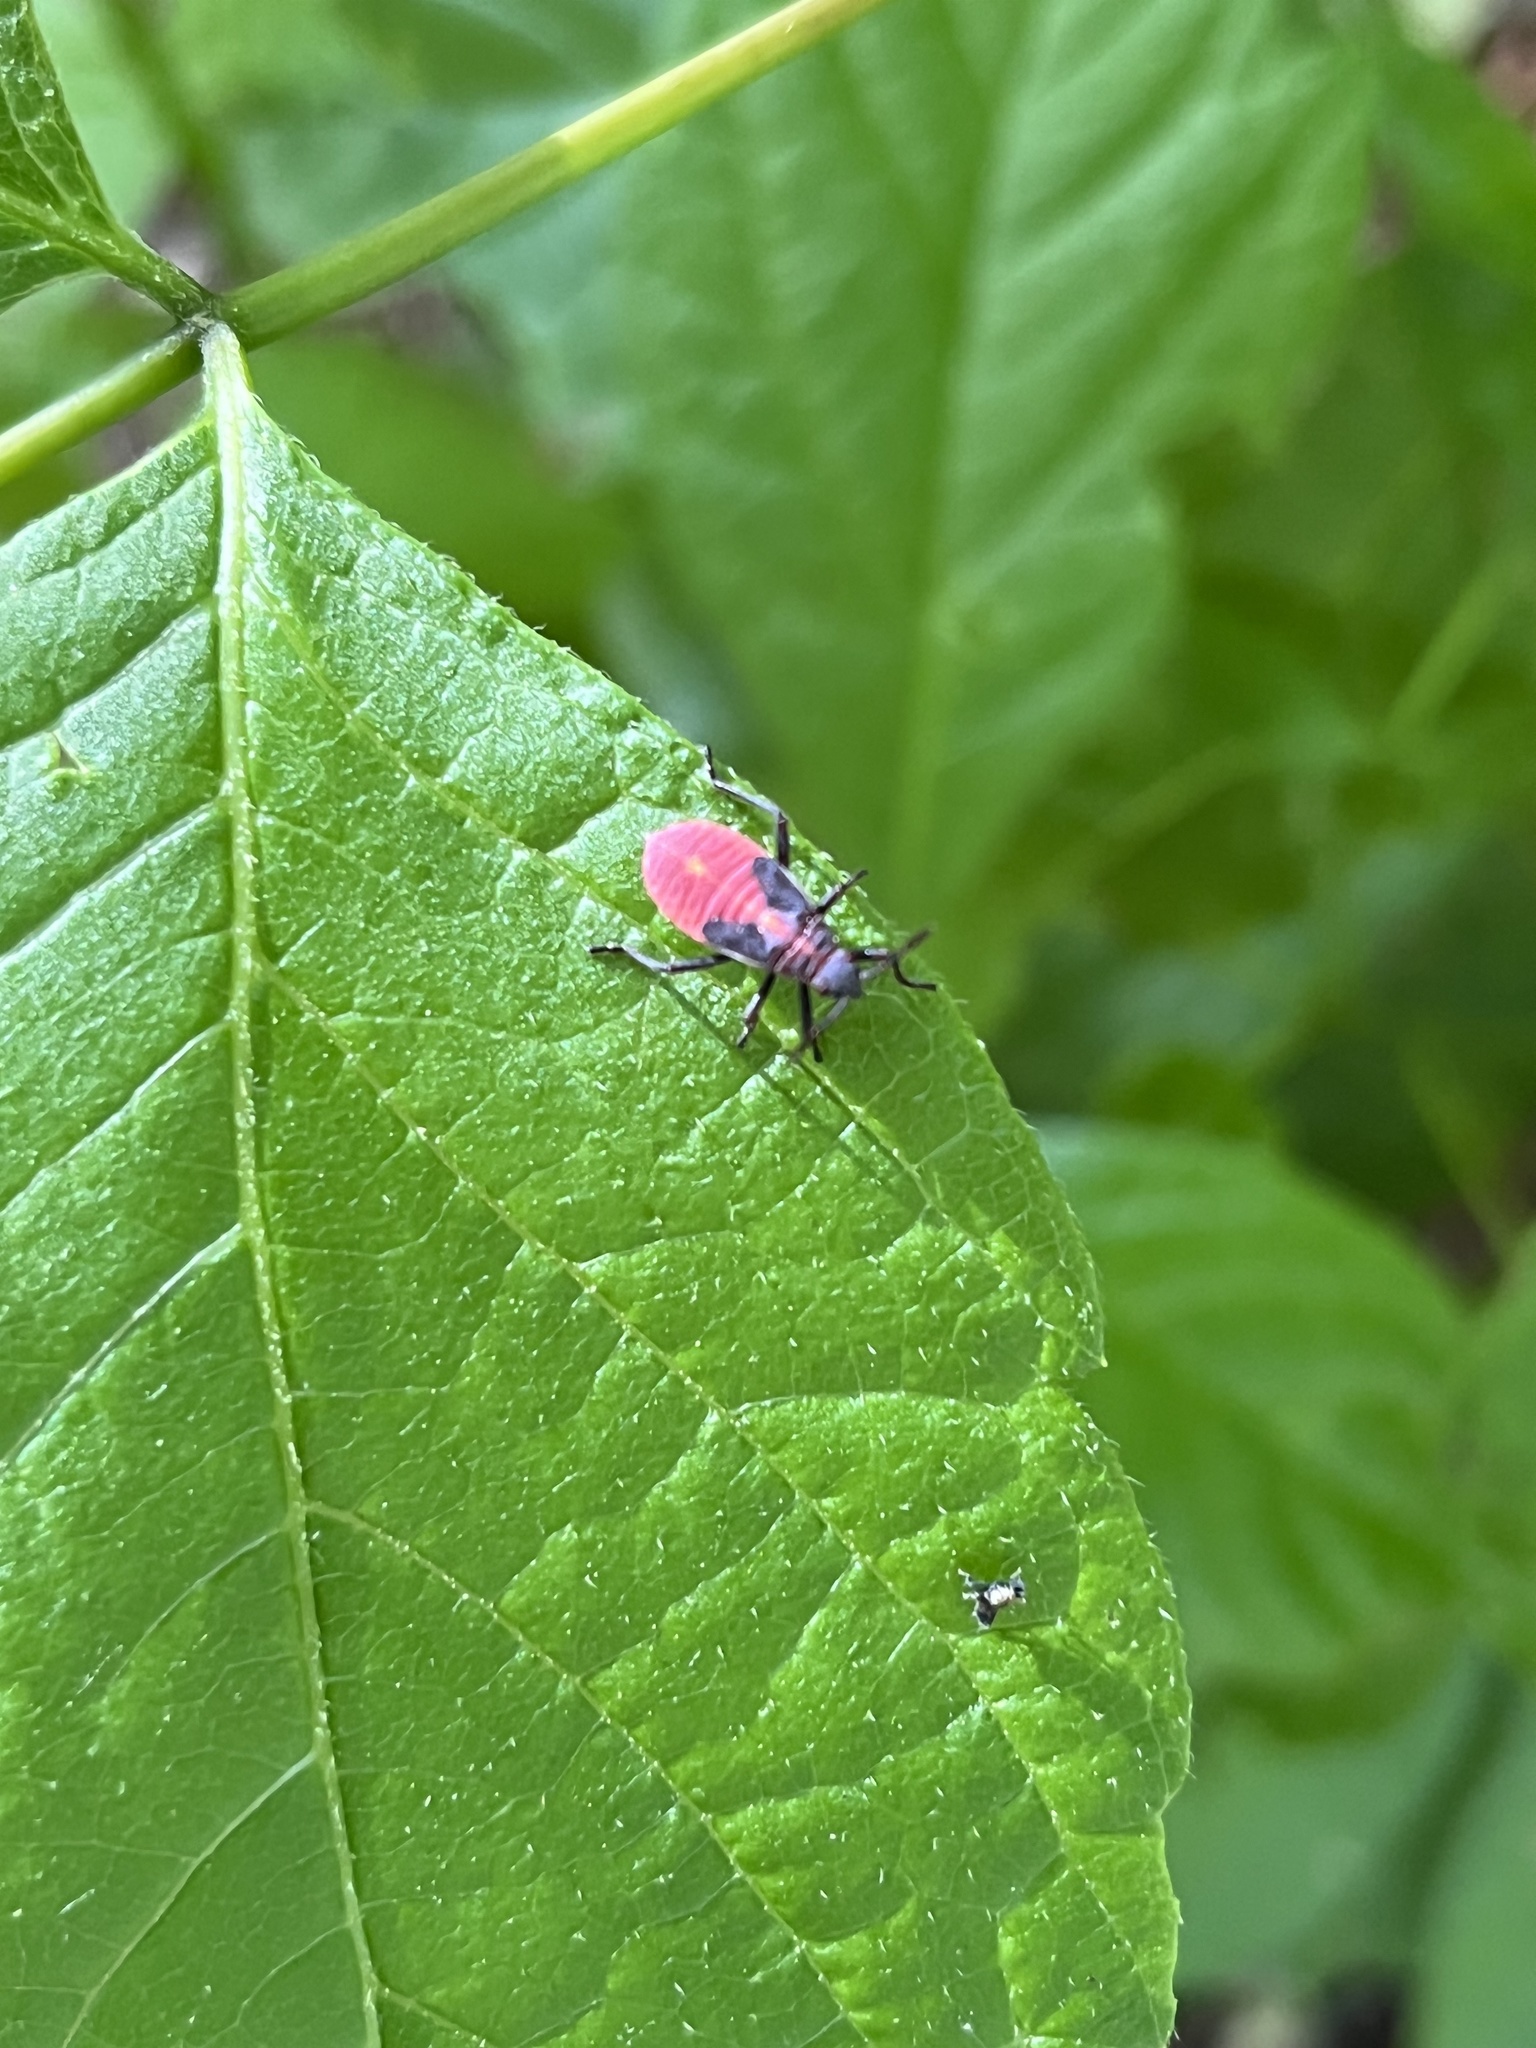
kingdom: Animalia
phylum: Arthropoda
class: Insecta
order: Hemiptera
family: Rhopalidae
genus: Boisea
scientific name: Boisea trivittata
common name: Boxelder bug
